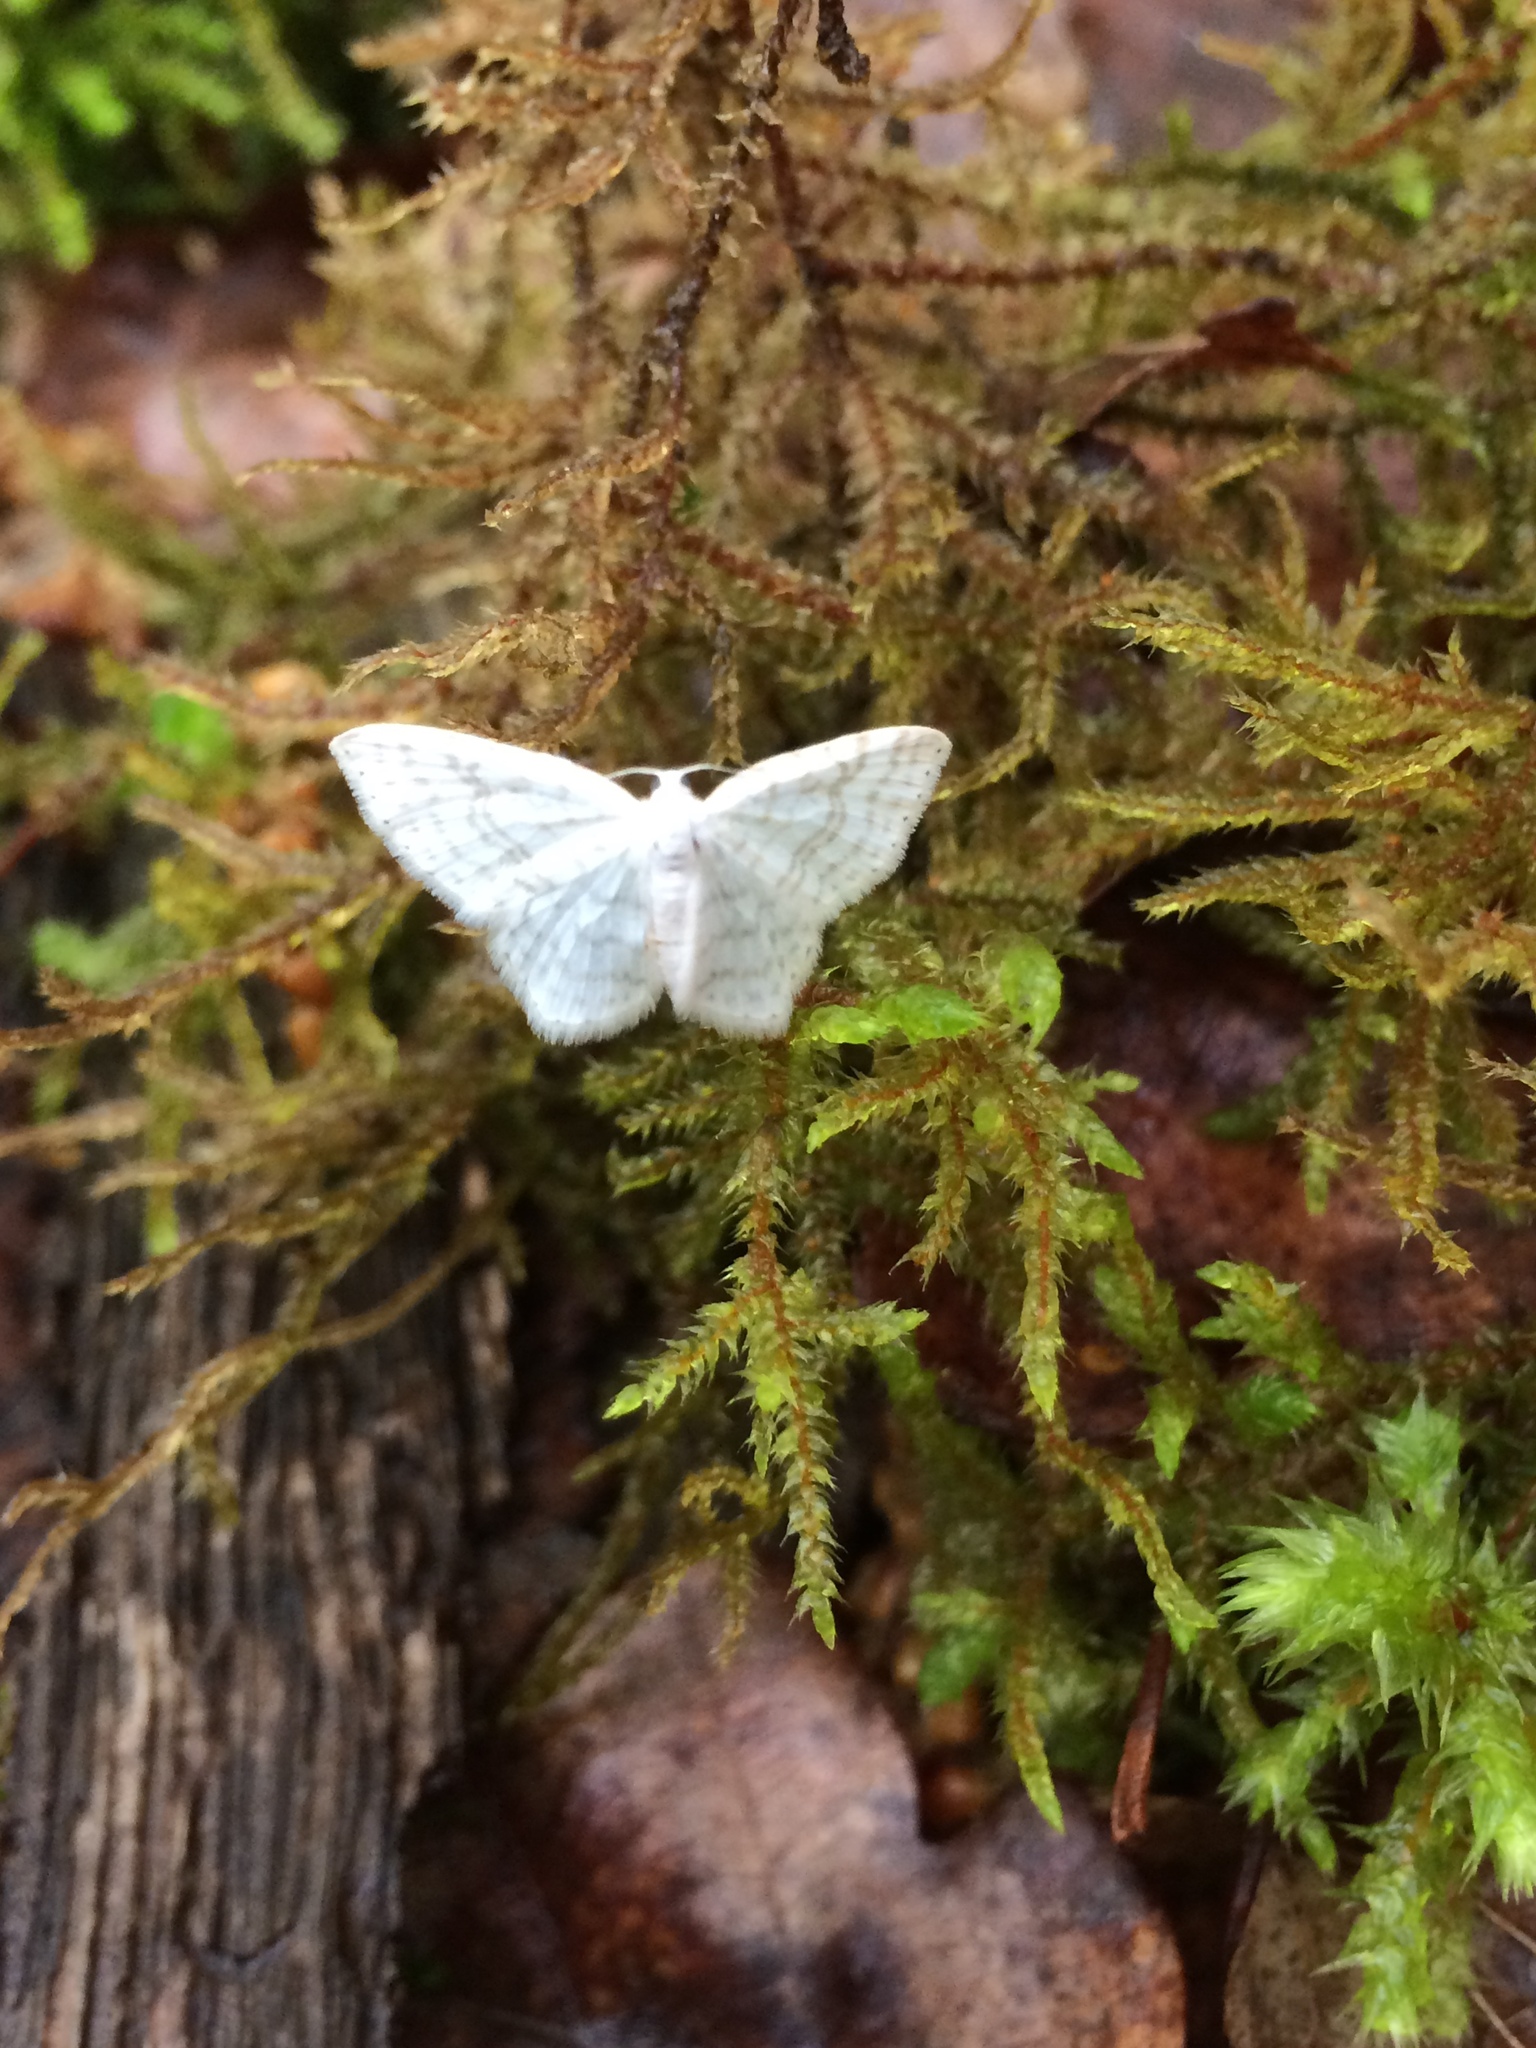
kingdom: Animalia
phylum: Arthropoda
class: Insecta
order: Lepidoptera
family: Geometridae
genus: Asthena
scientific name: Asthena albulata
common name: Small white wave
